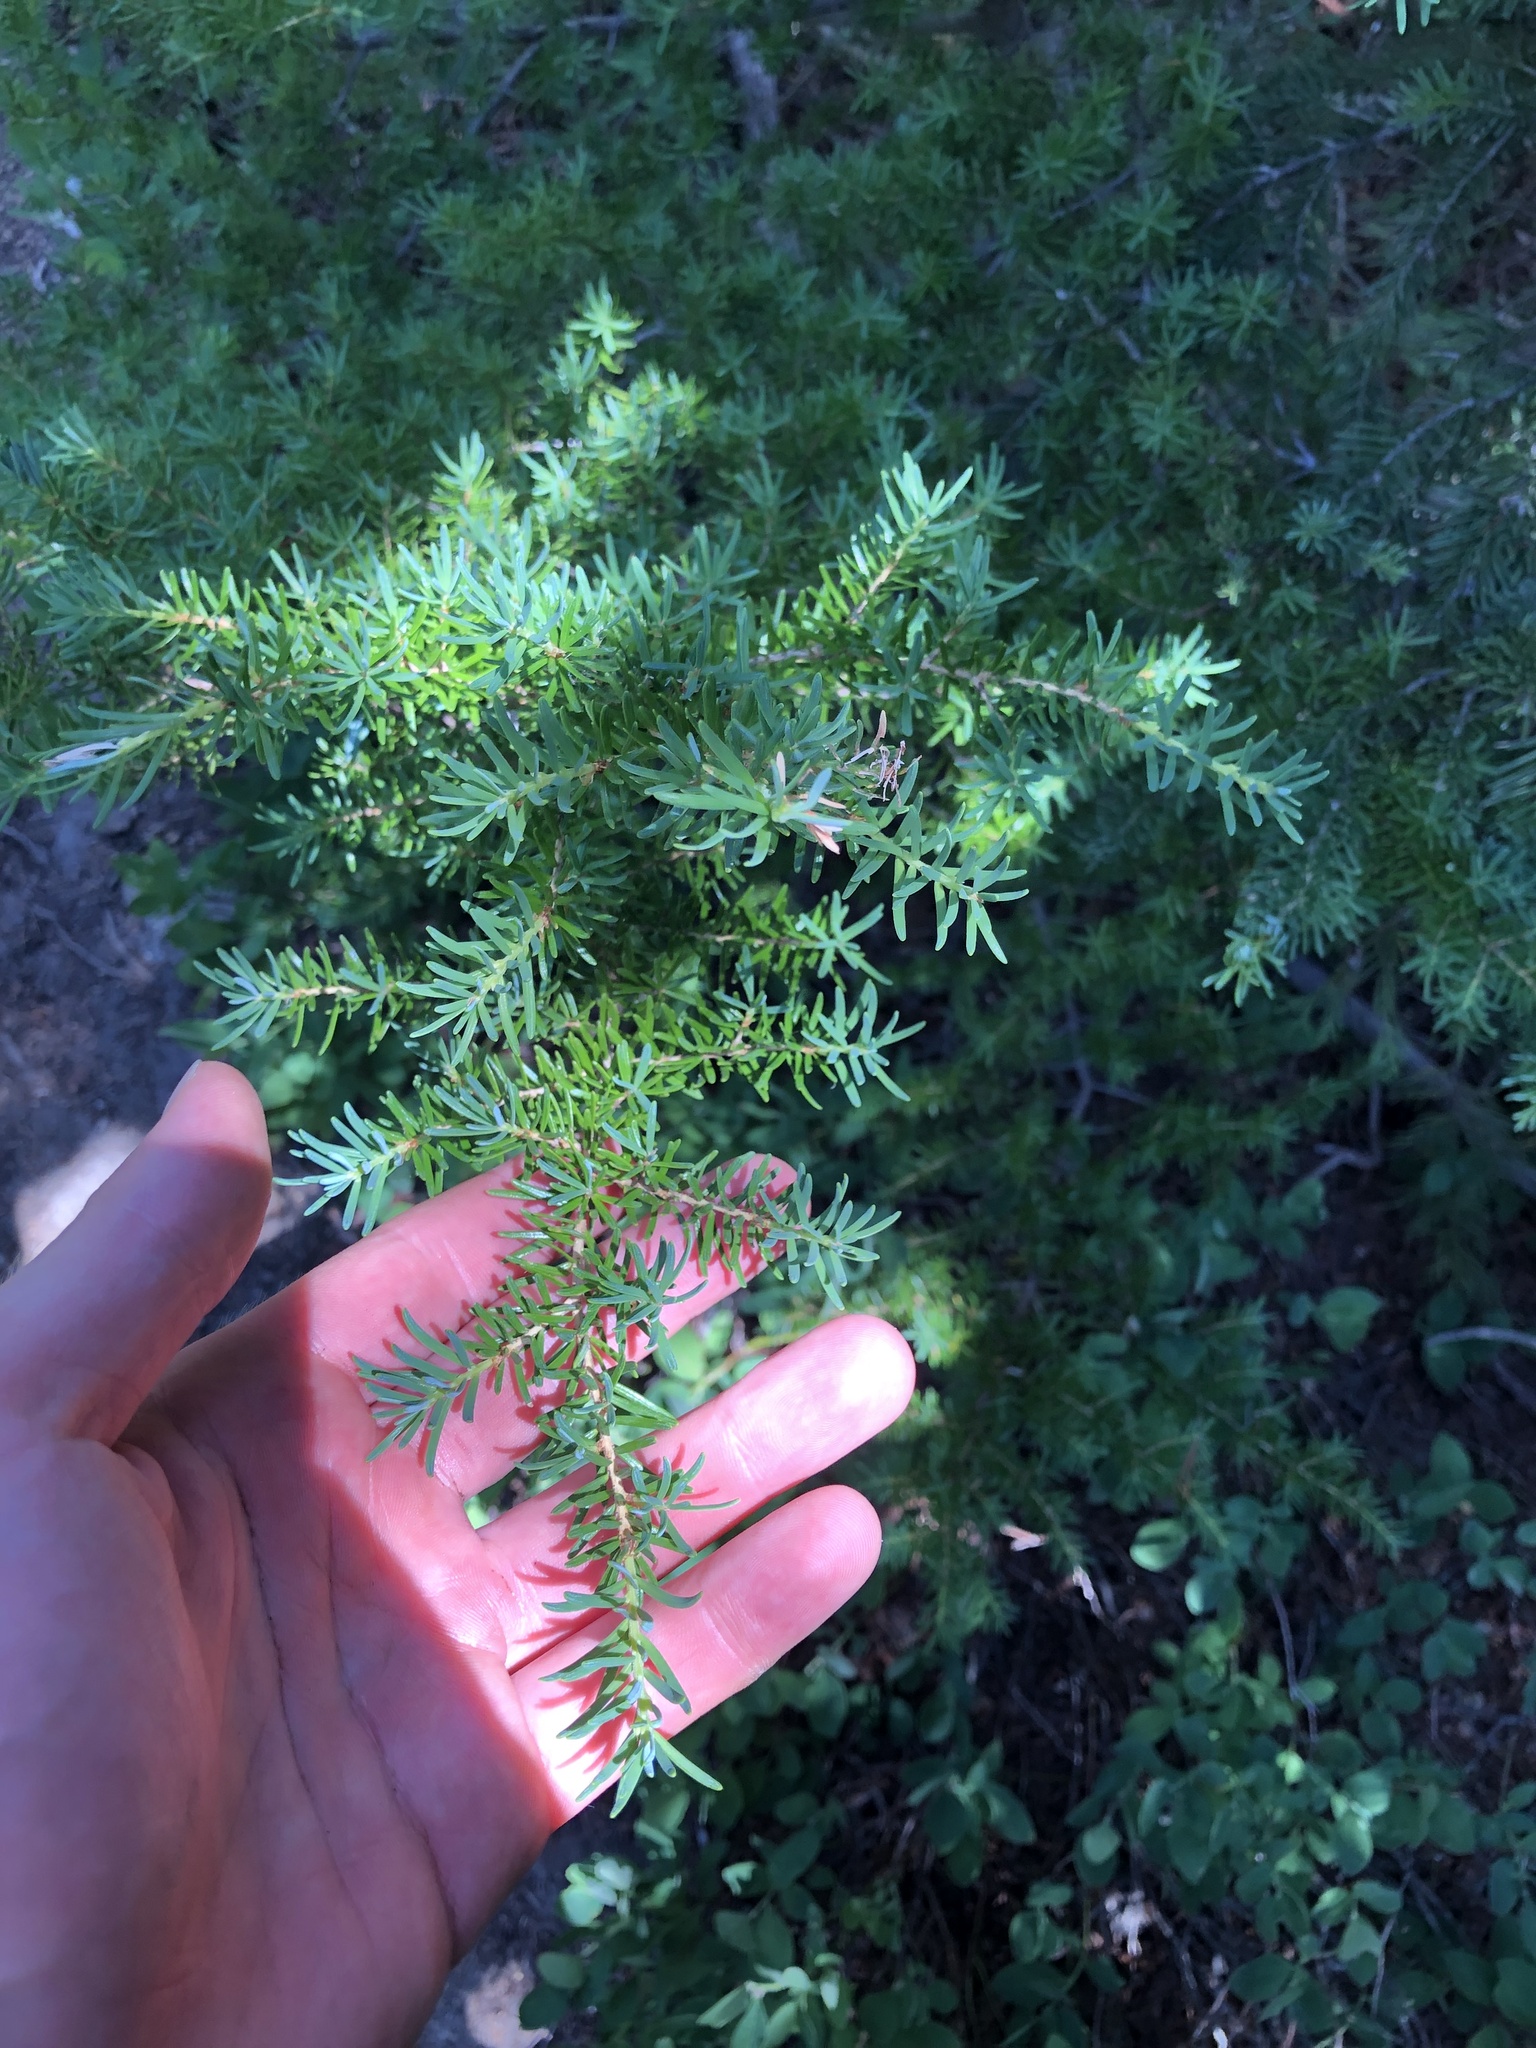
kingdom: Plantae
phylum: Tracheophyta
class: Pinopsida
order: Pinales
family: Pinaceae
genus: Tsuga
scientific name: Tsuga mertensiana
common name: Mountain hemlock
